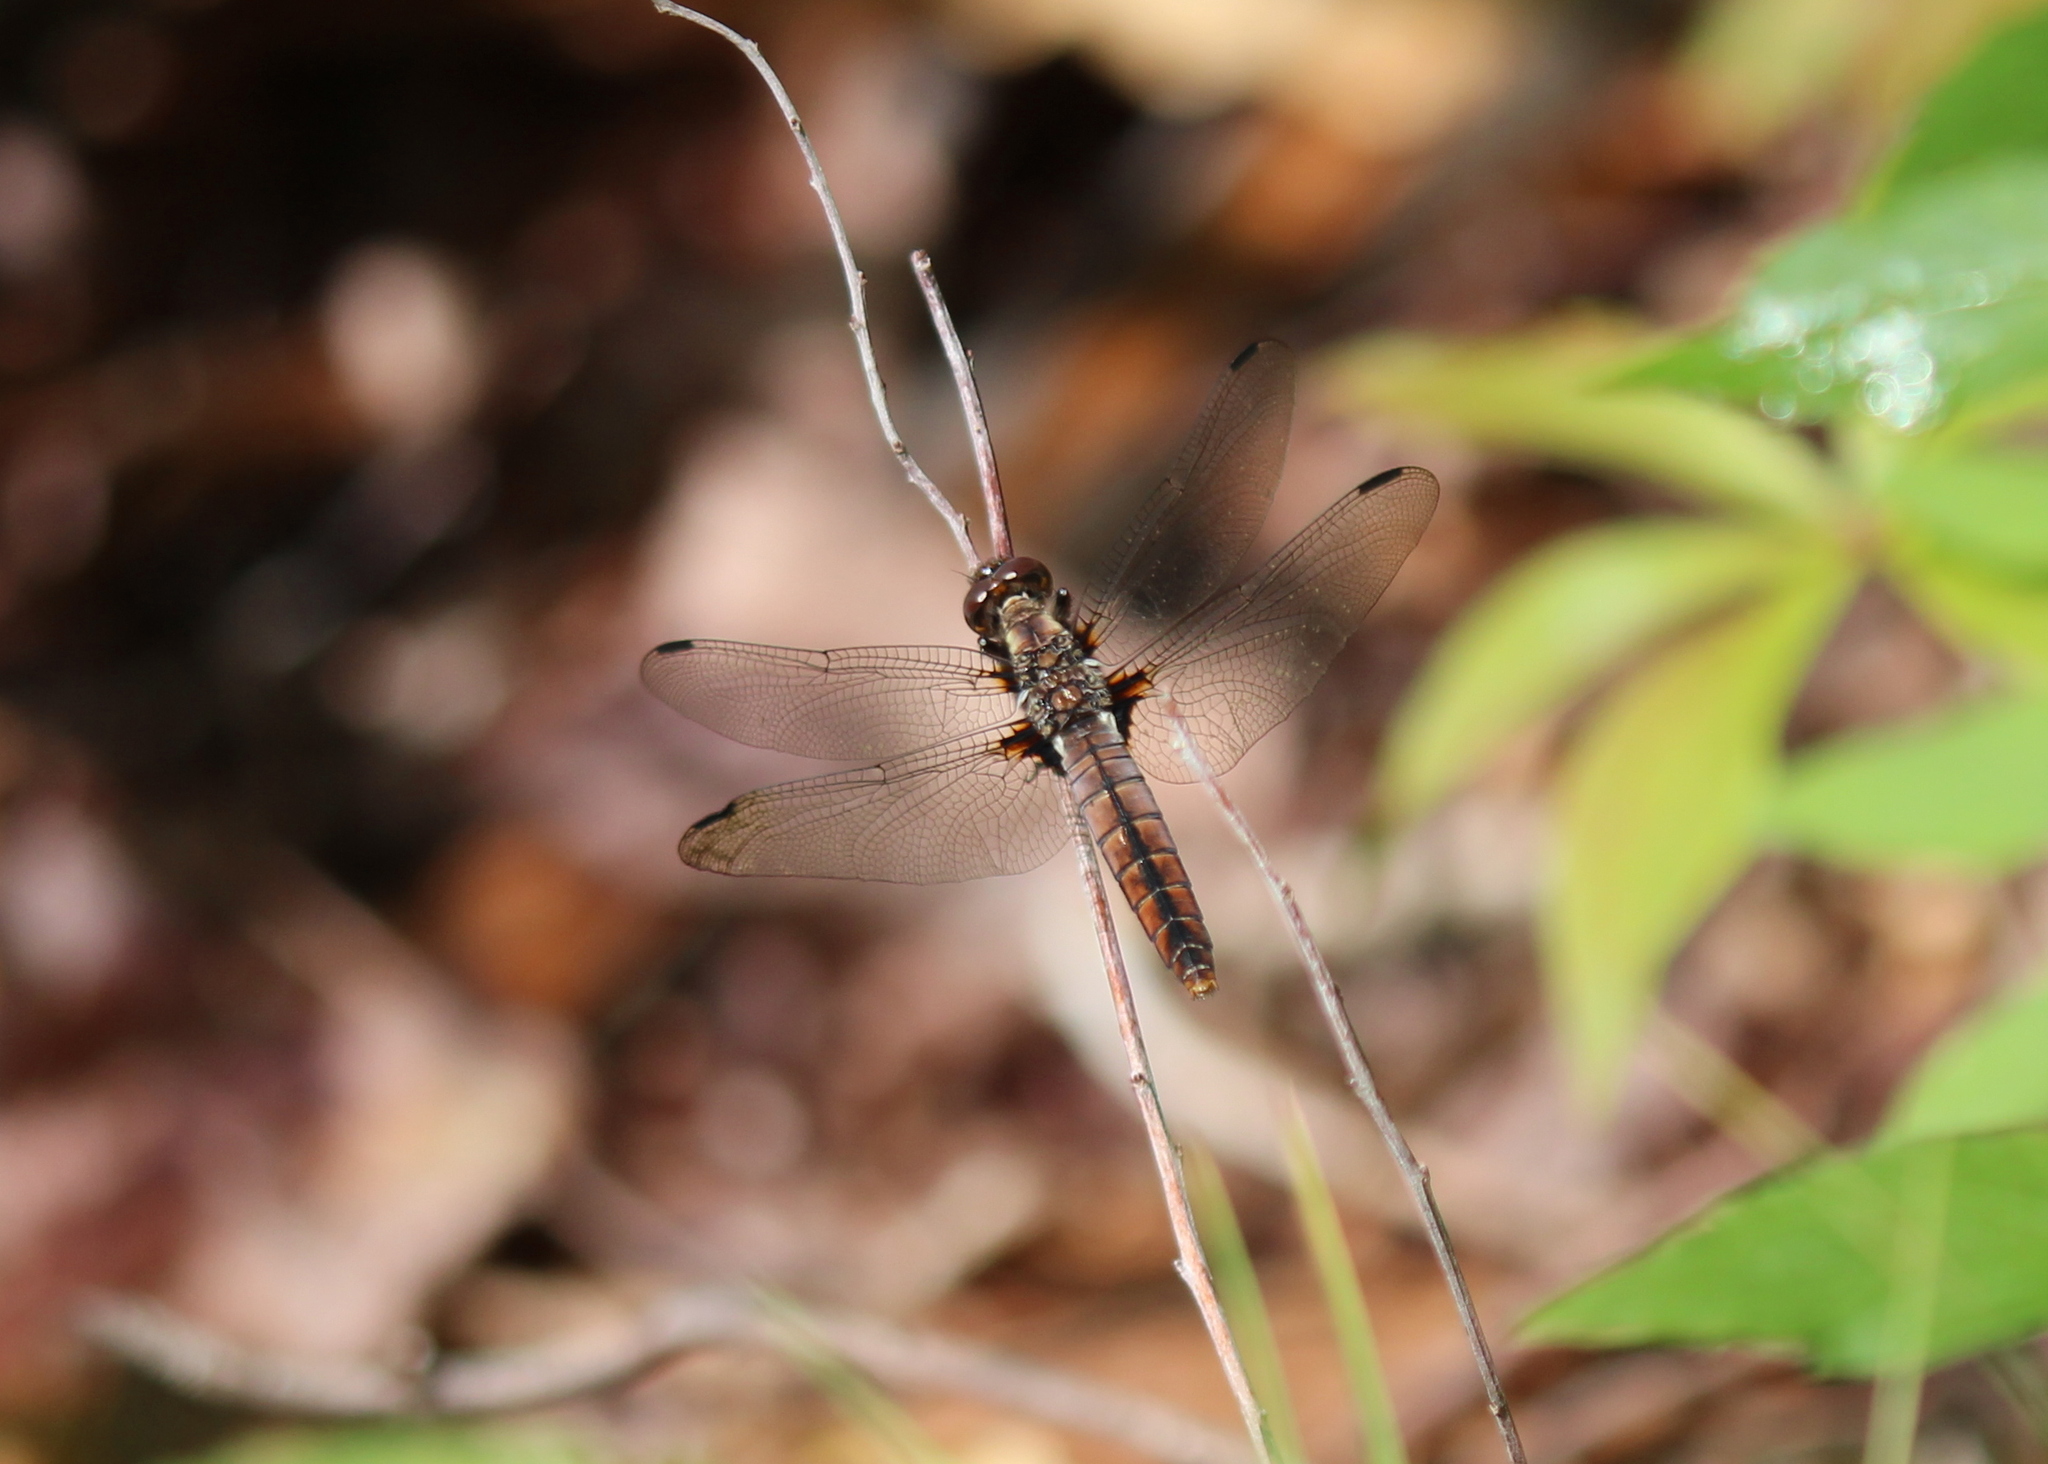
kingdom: Animalia
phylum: Arthropoda
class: Insecta
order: Odonata
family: Libellulidae
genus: Ladona
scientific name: Ladona julia
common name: Chalk-fronted corporal
